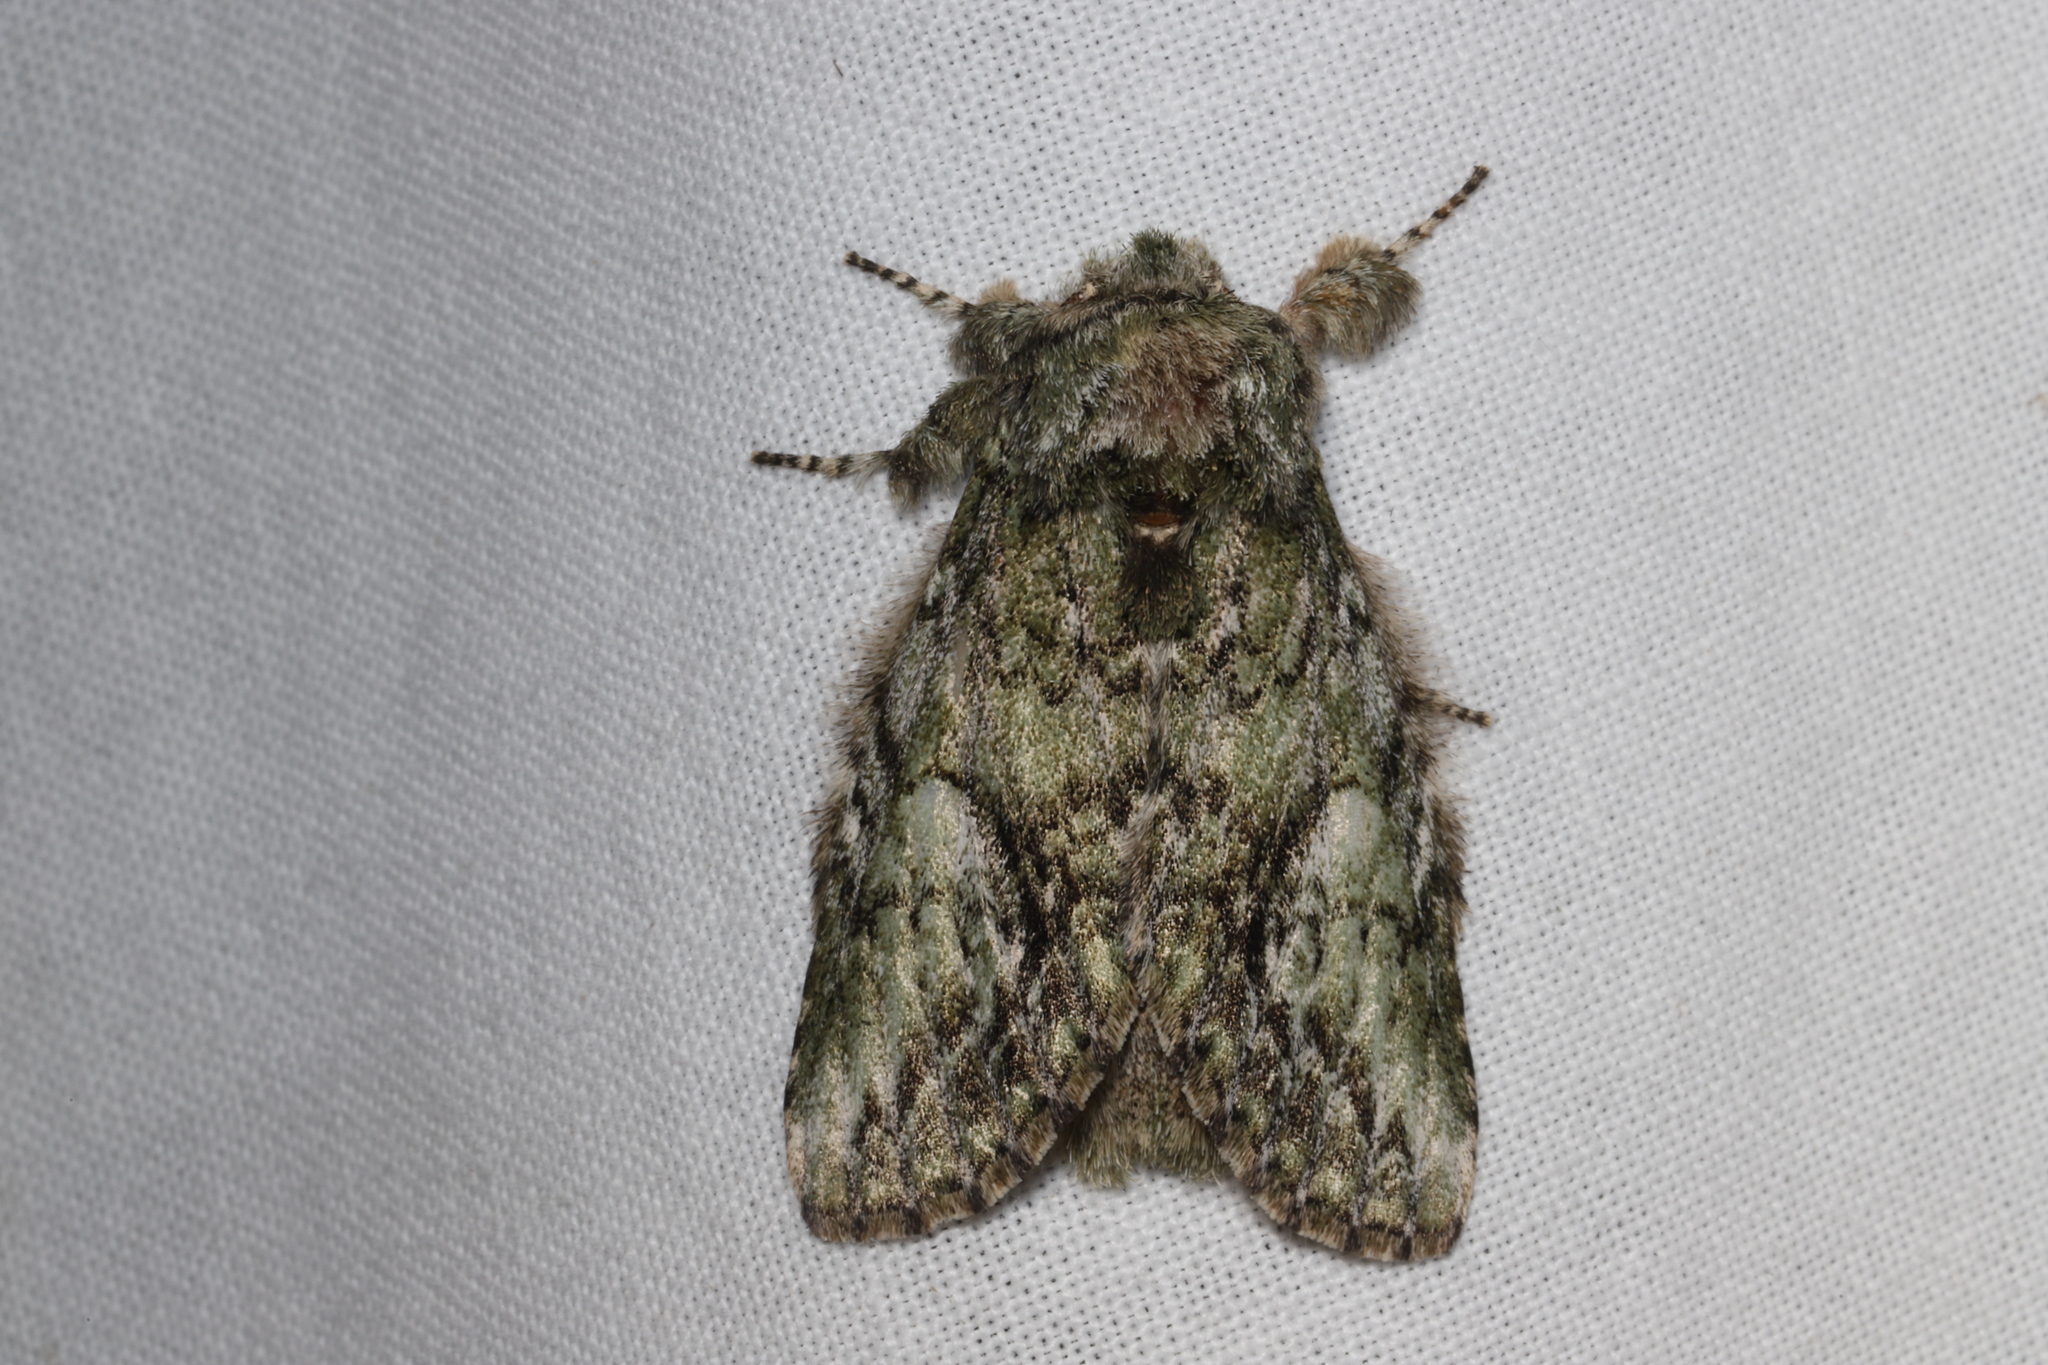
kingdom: Animalia
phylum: Arthropoda
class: Insecta
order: Lepidoptera
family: Notodontidae
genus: Heterocampa
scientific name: Heterocampa
